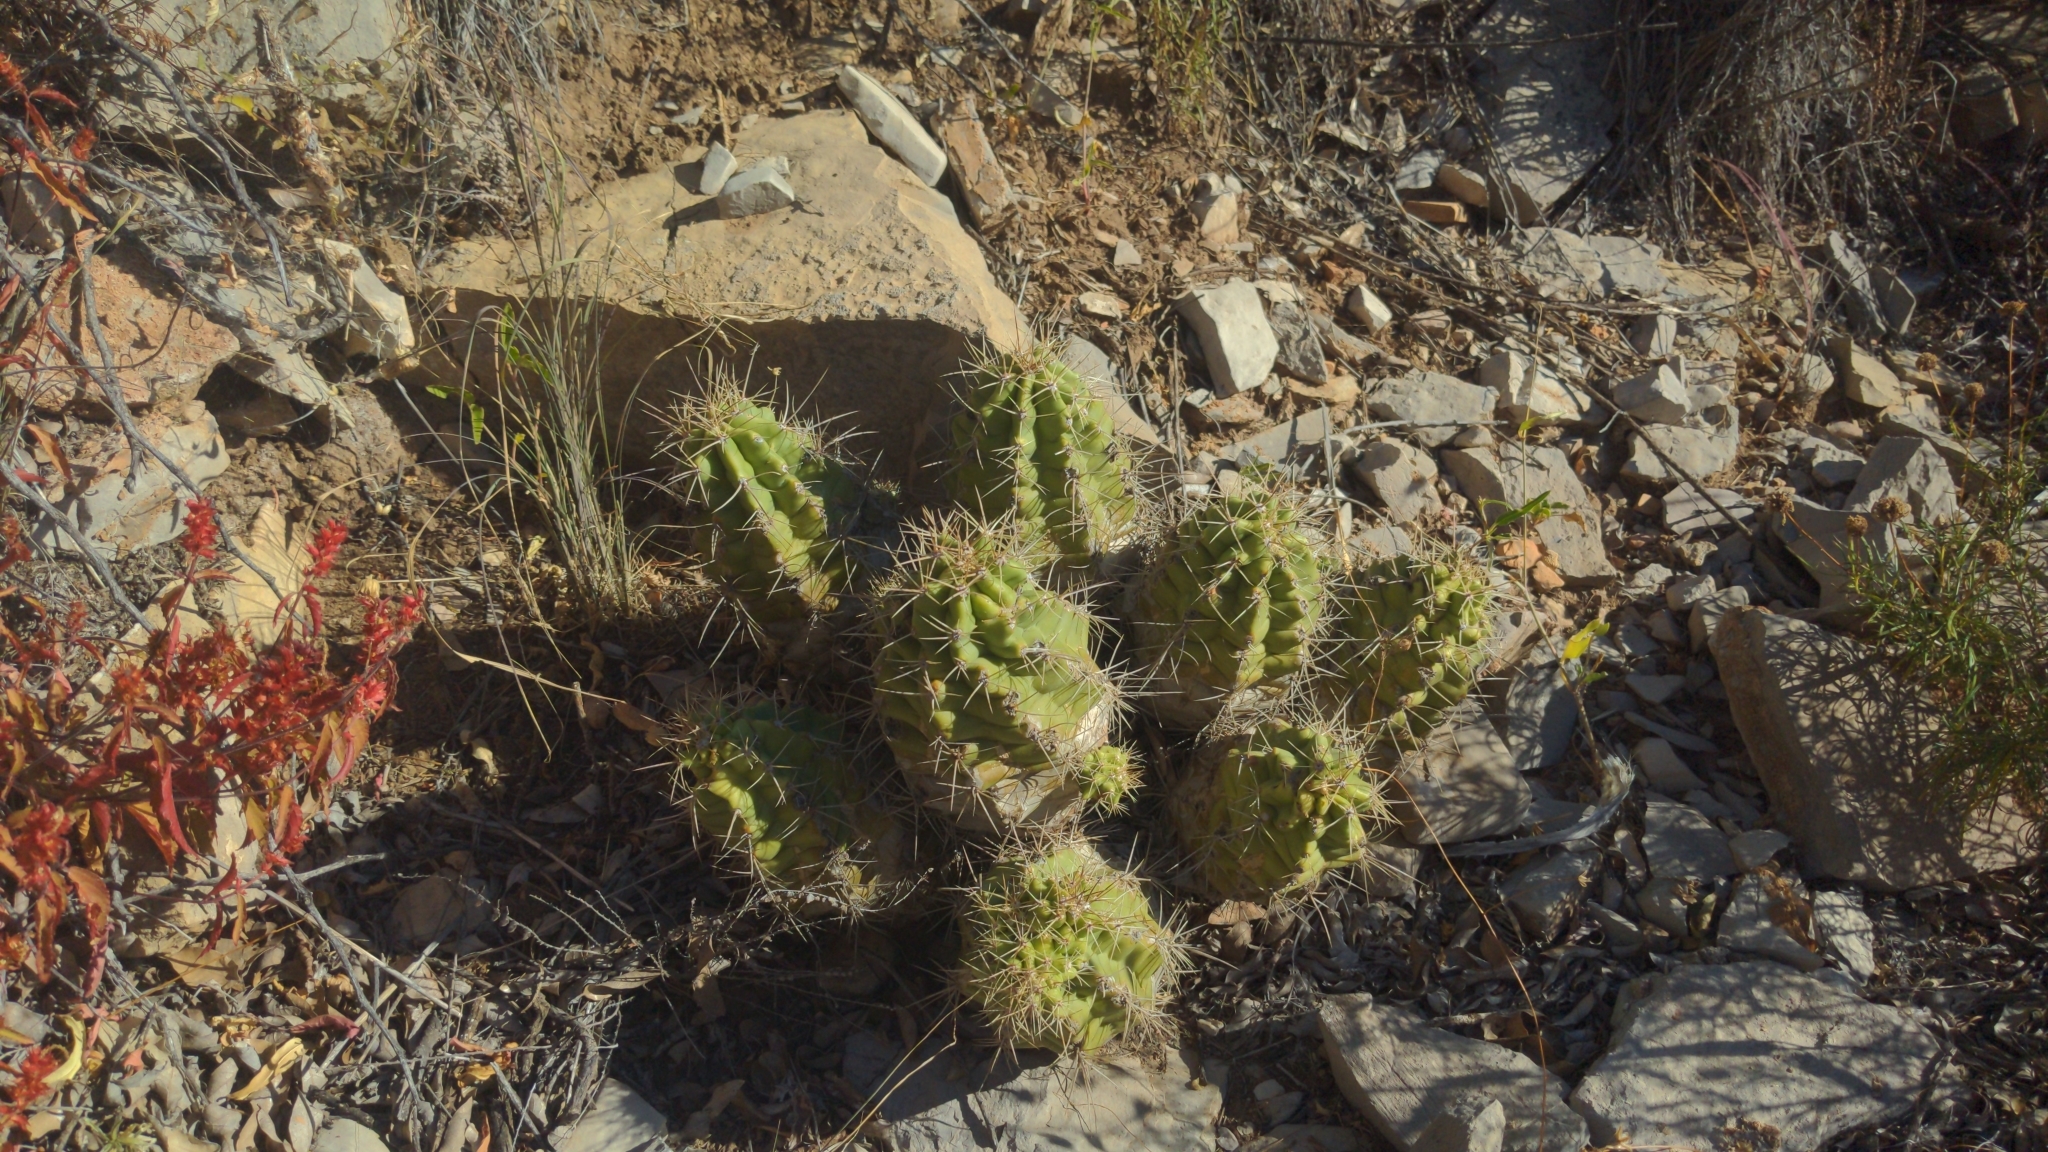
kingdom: Plantae
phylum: Tracheophyta
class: Magnoliopsida
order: Caryophyllales
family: Cactaceae
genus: Echinocereus
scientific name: Echinocereus coccineus
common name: Scarlet hedgehog cactus
